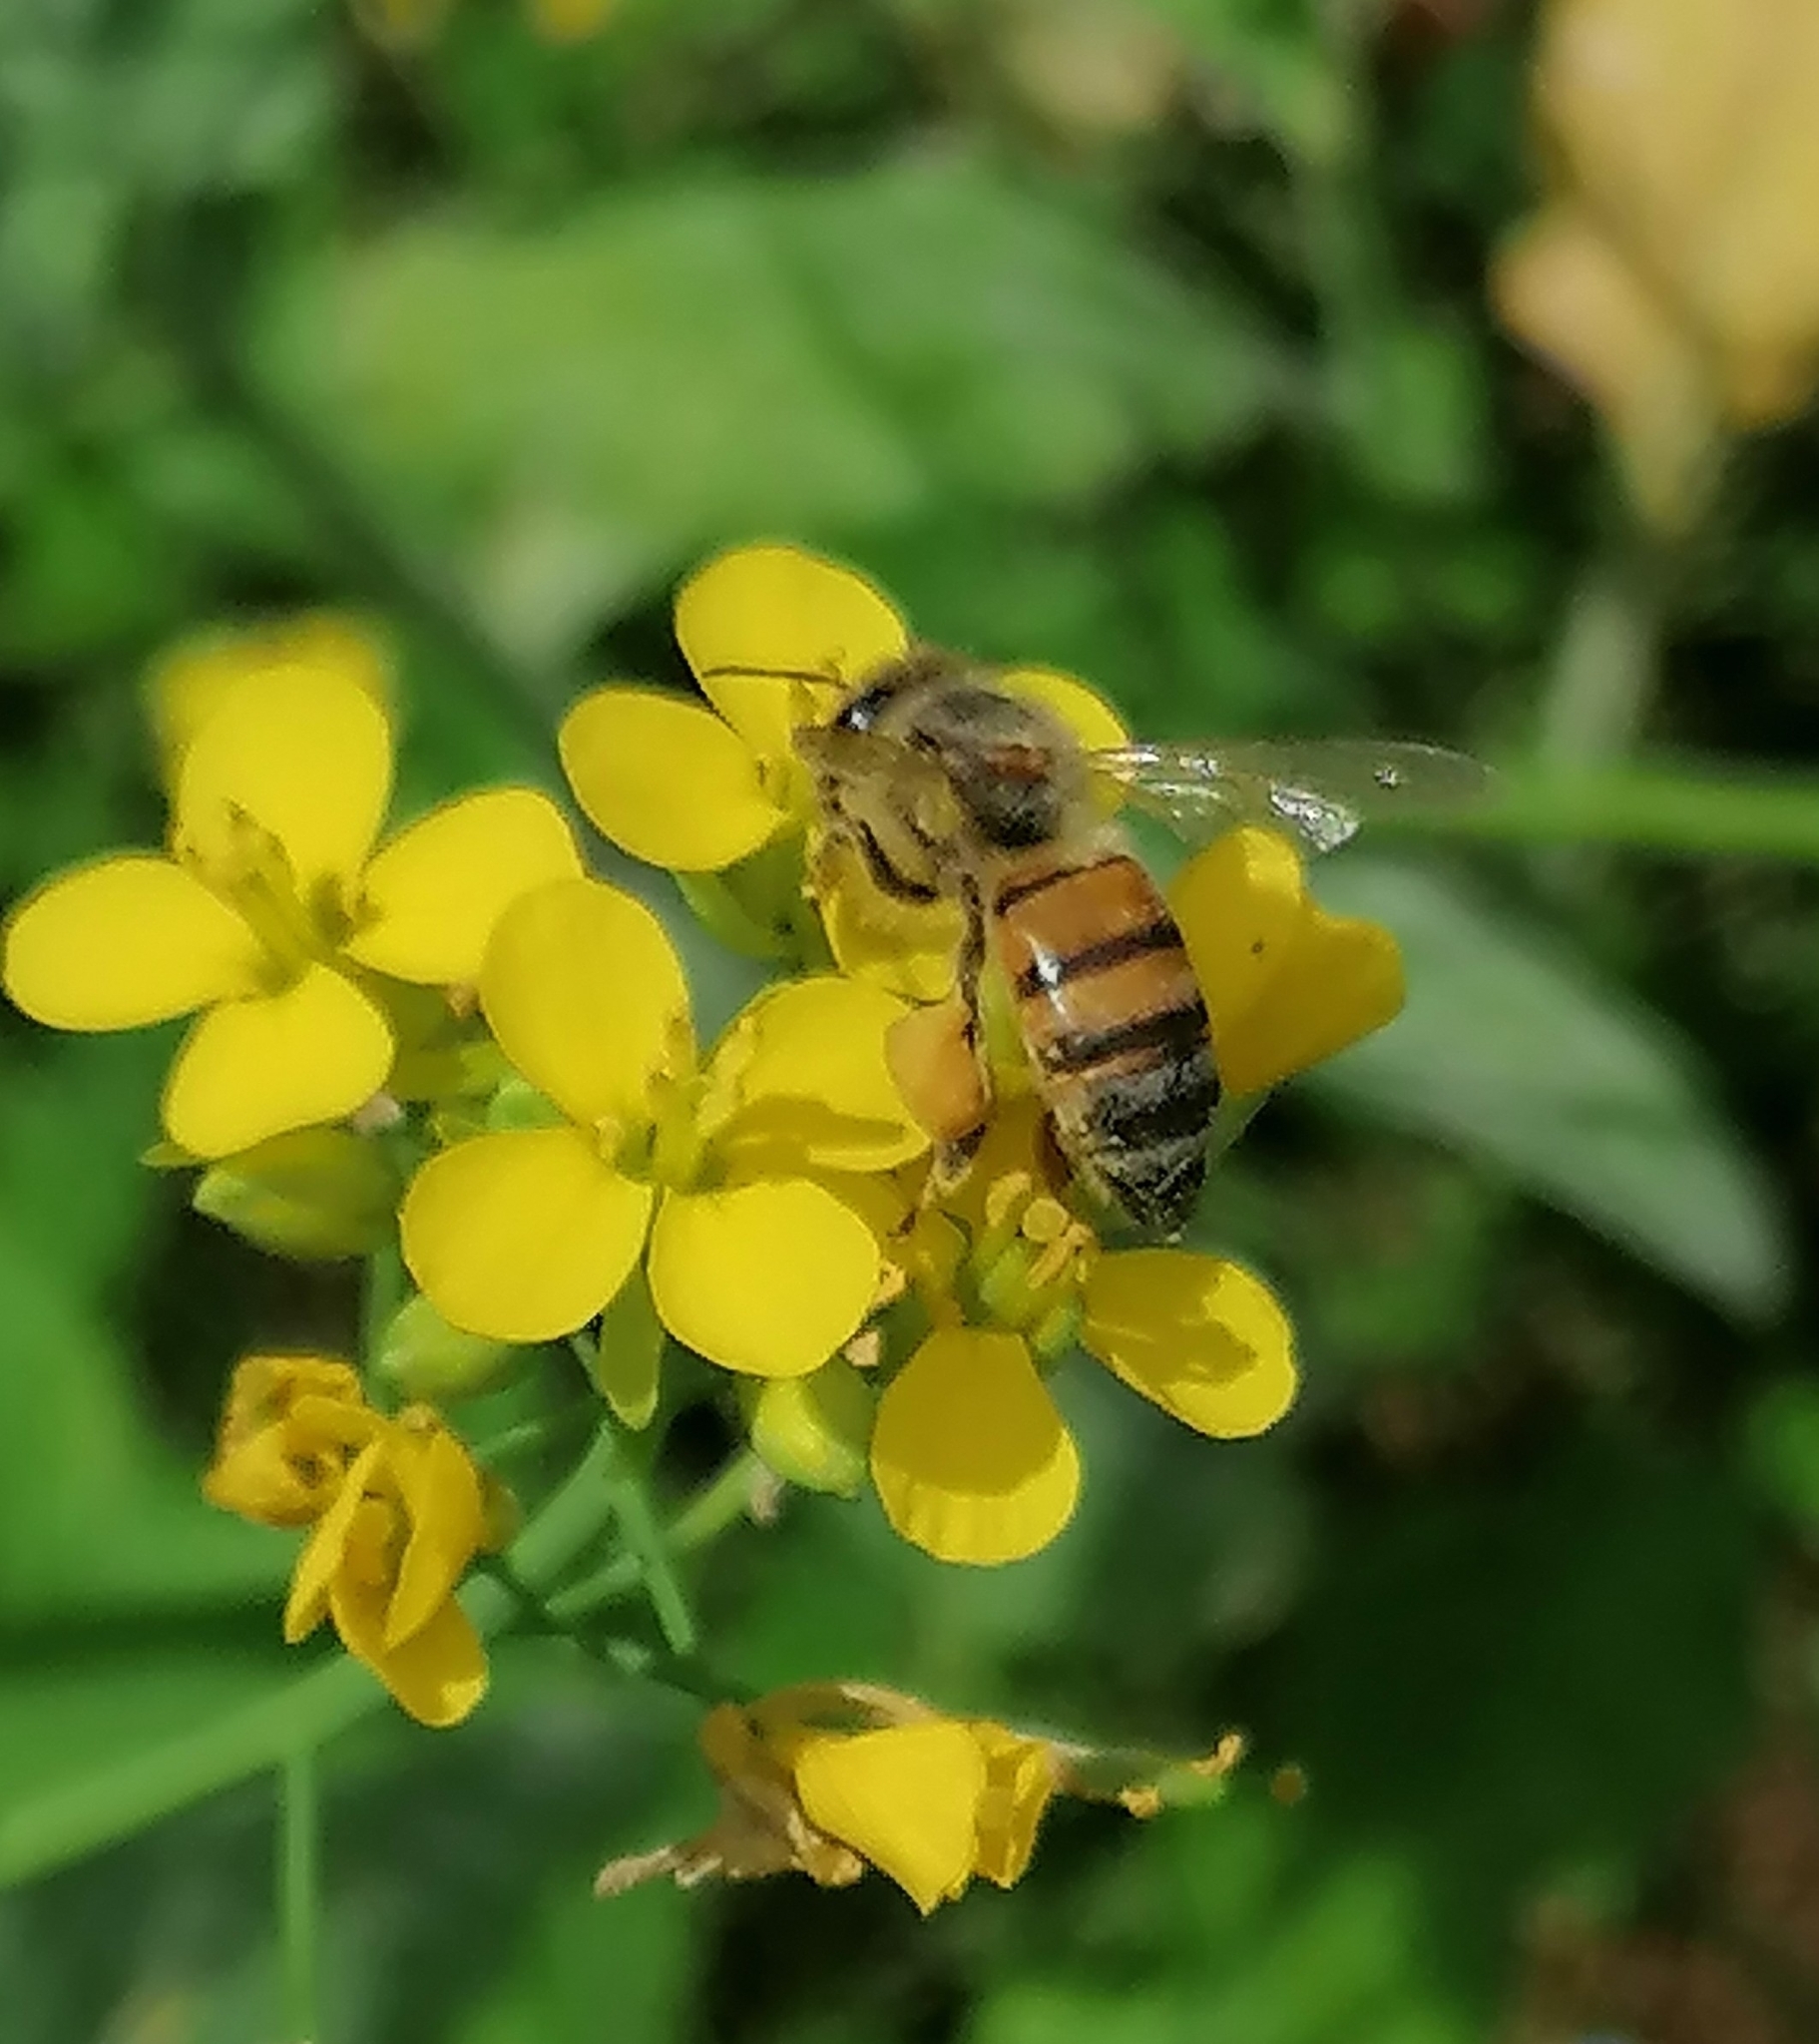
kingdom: Animalia
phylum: Arthropoda
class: Insecta
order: Hymenoptera
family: Apidae
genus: Apis
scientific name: Apis mellifera
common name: Honey bee
